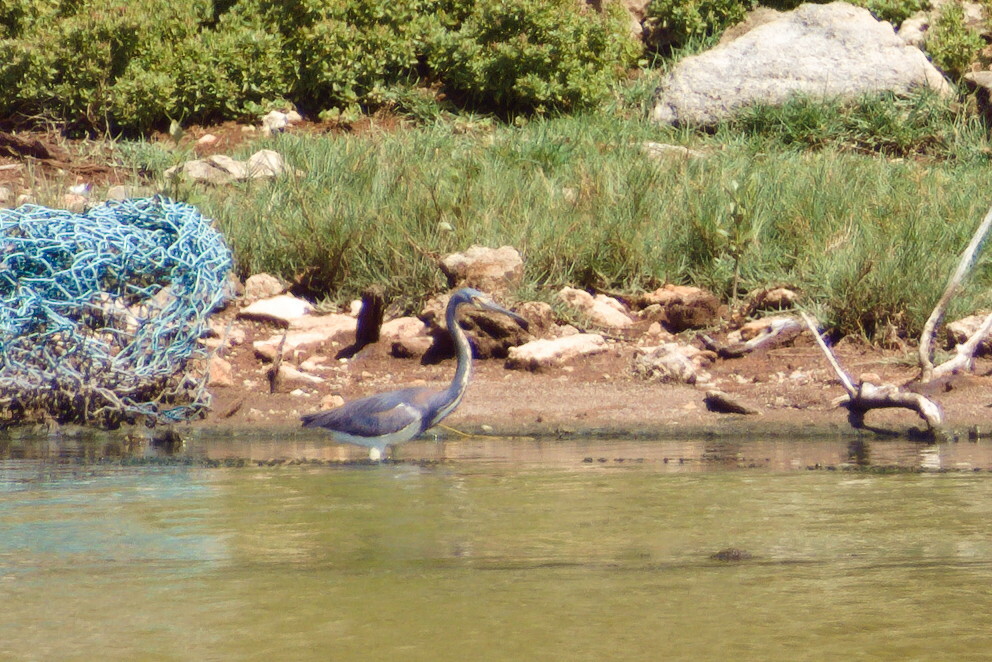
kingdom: Animalia
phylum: Chordata
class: Aves
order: Pelecaniformes
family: Ardeidae
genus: Egretta
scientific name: Egretta tricolor
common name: Tricolored heron
